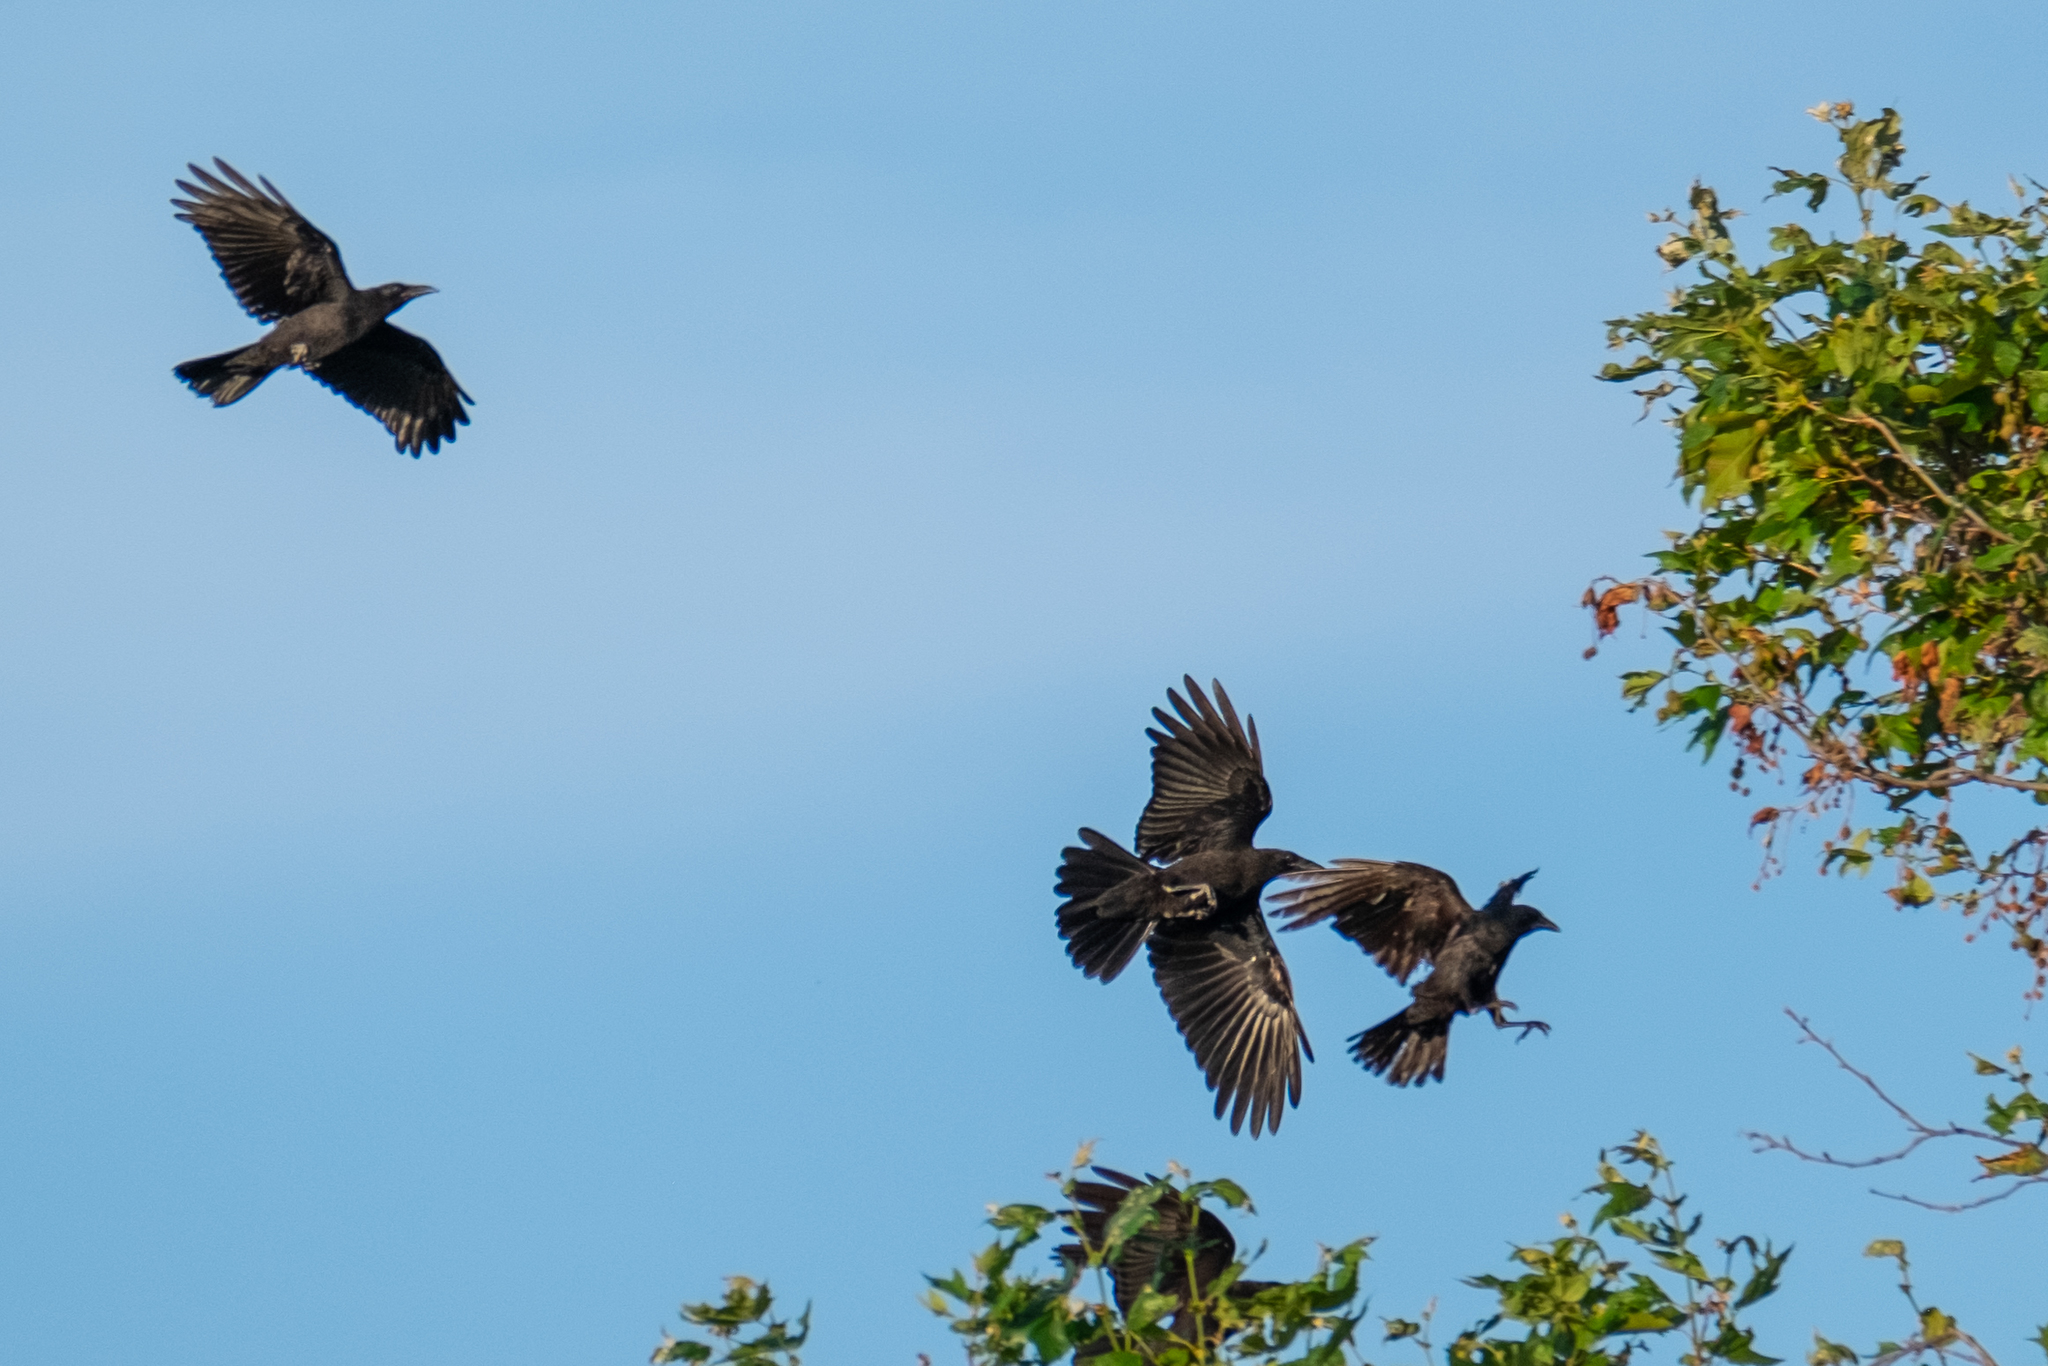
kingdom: Animalia
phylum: Chordata
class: Aves
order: Passeriformes
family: Corvidae
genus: Corvus
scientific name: Corvus brachyrhynchos
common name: American crow
